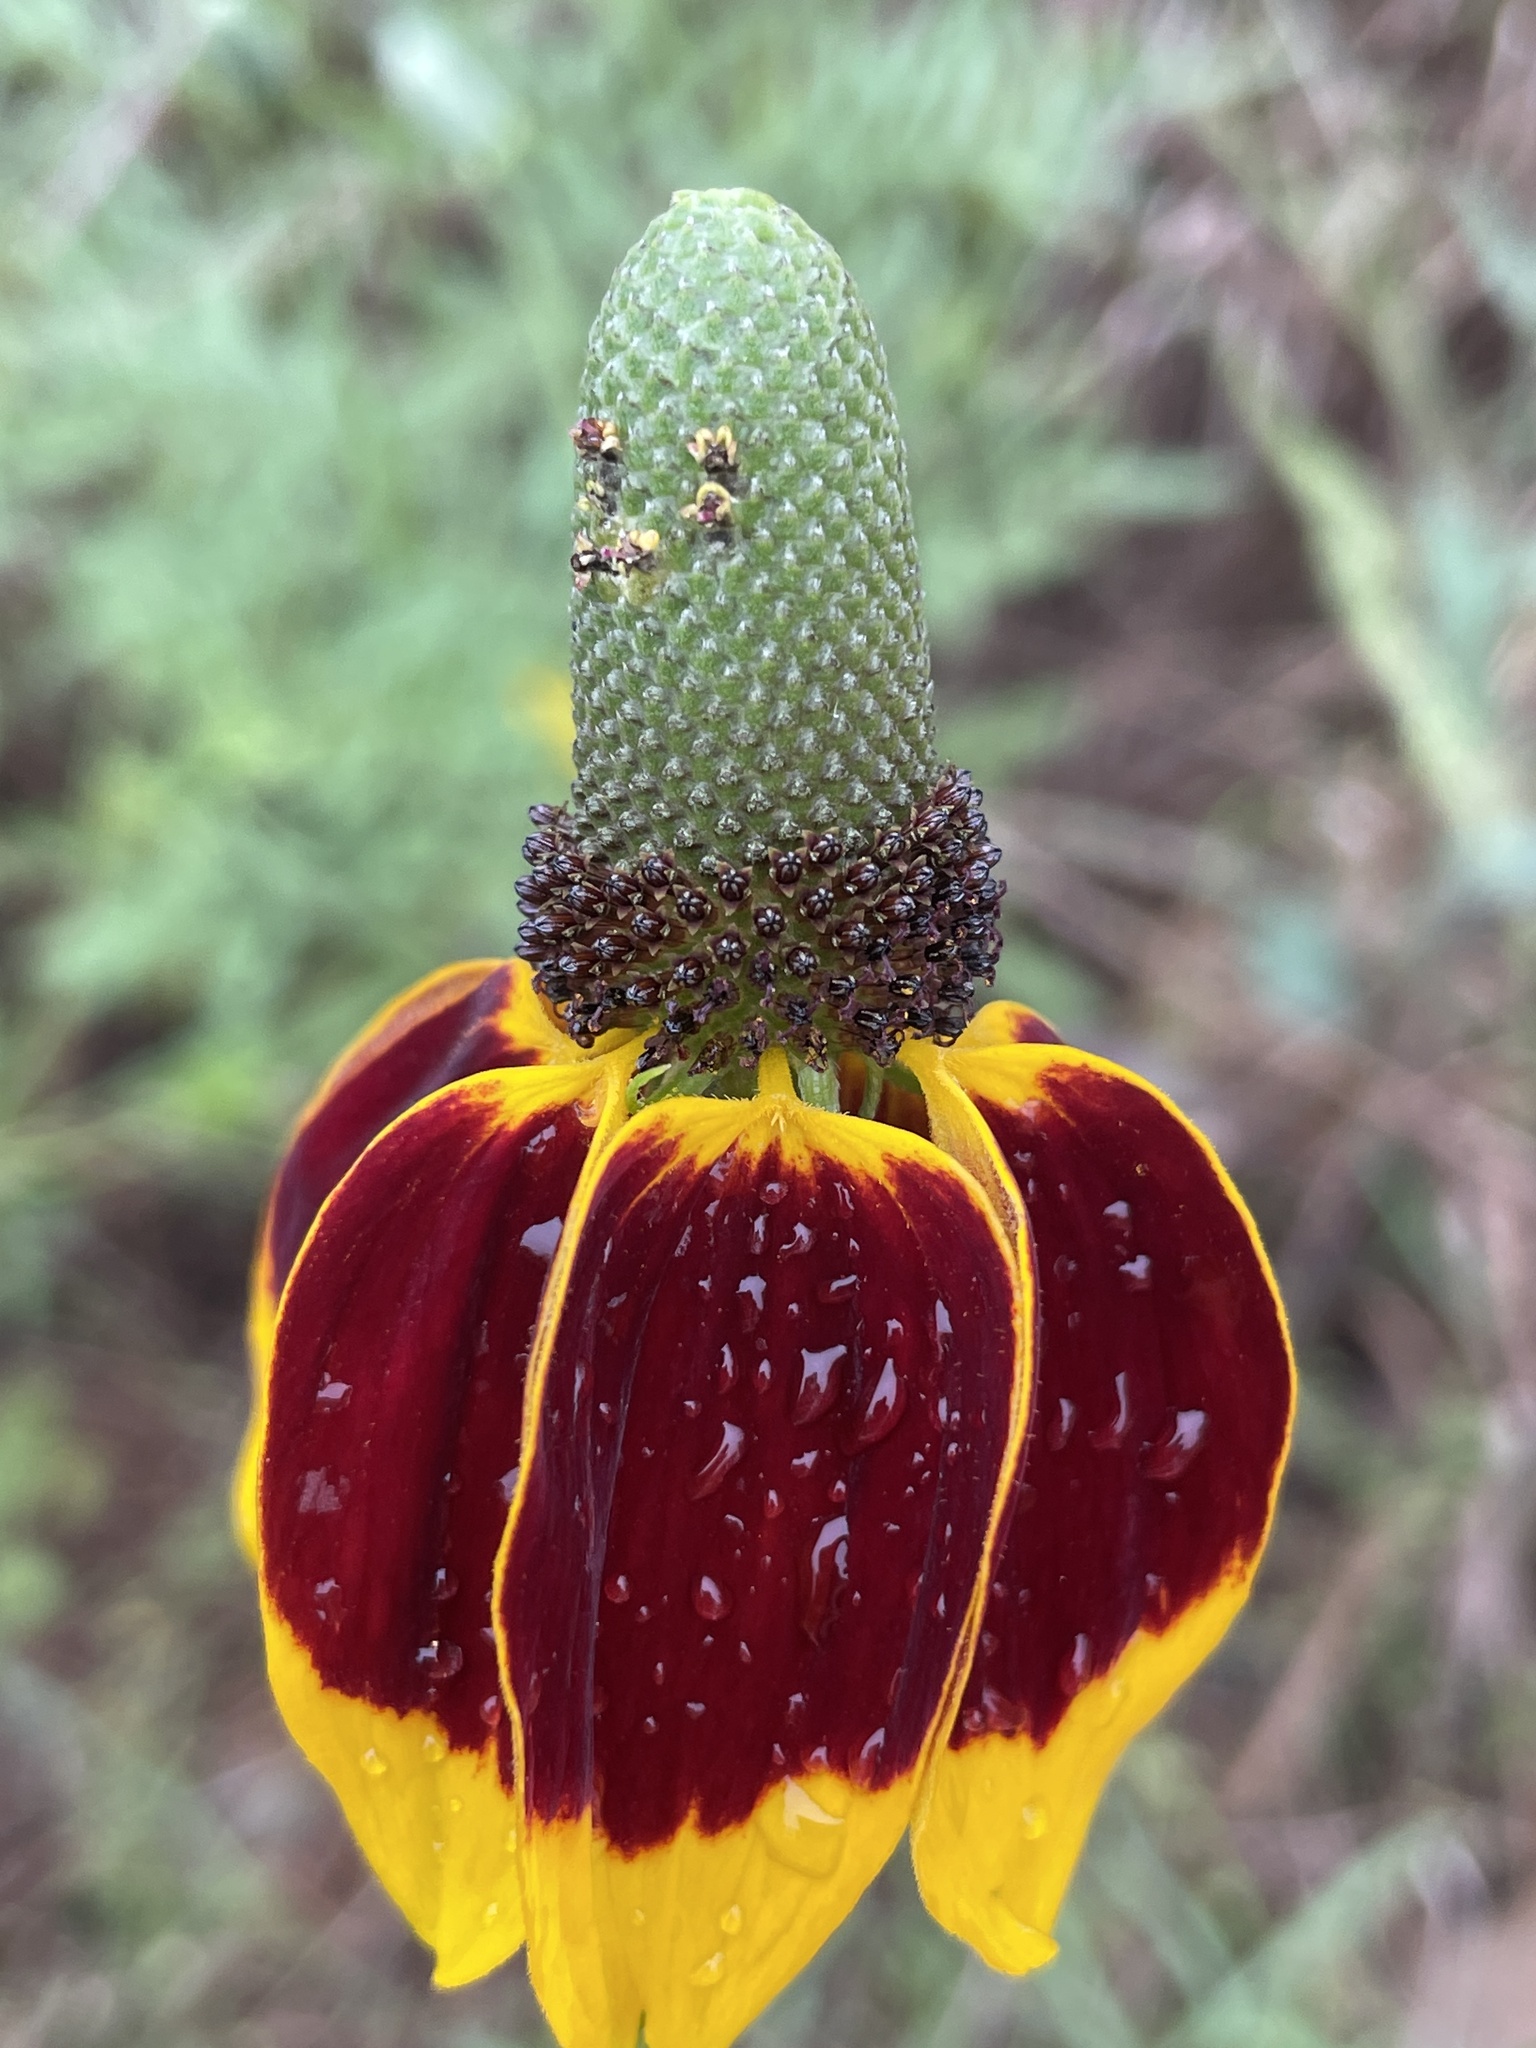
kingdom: Plantae
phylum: Tracheophyta
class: Magnoliopsida
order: Asterales
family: Asteraceae
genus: Ratibida
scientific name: Ratibida columnifera
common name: Prairie coneflower
